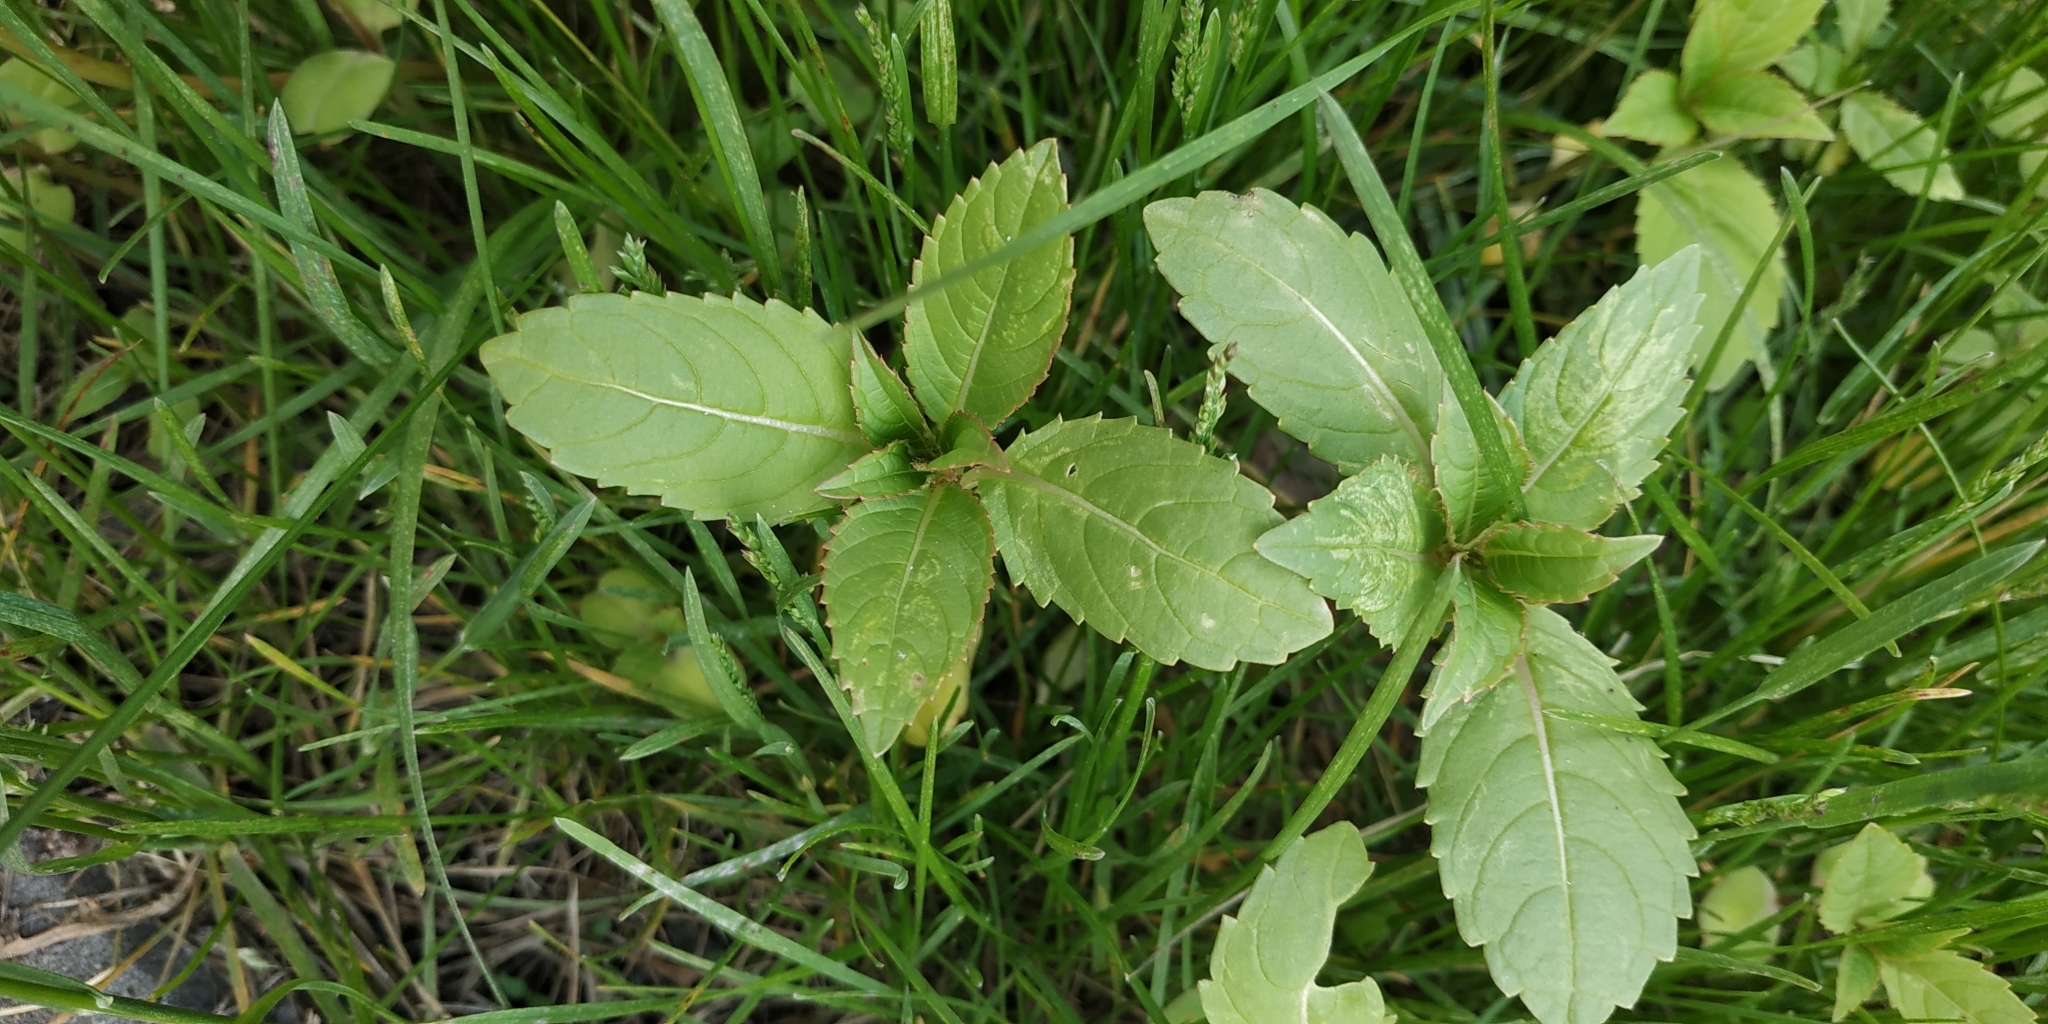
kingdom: Plantae
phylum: Tracheophyta
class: Magnoliopsida
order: Ericales
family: Balsaminaceae
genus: Impatiens
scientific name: Impatiens glandulifera
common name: Himalayan balsam
